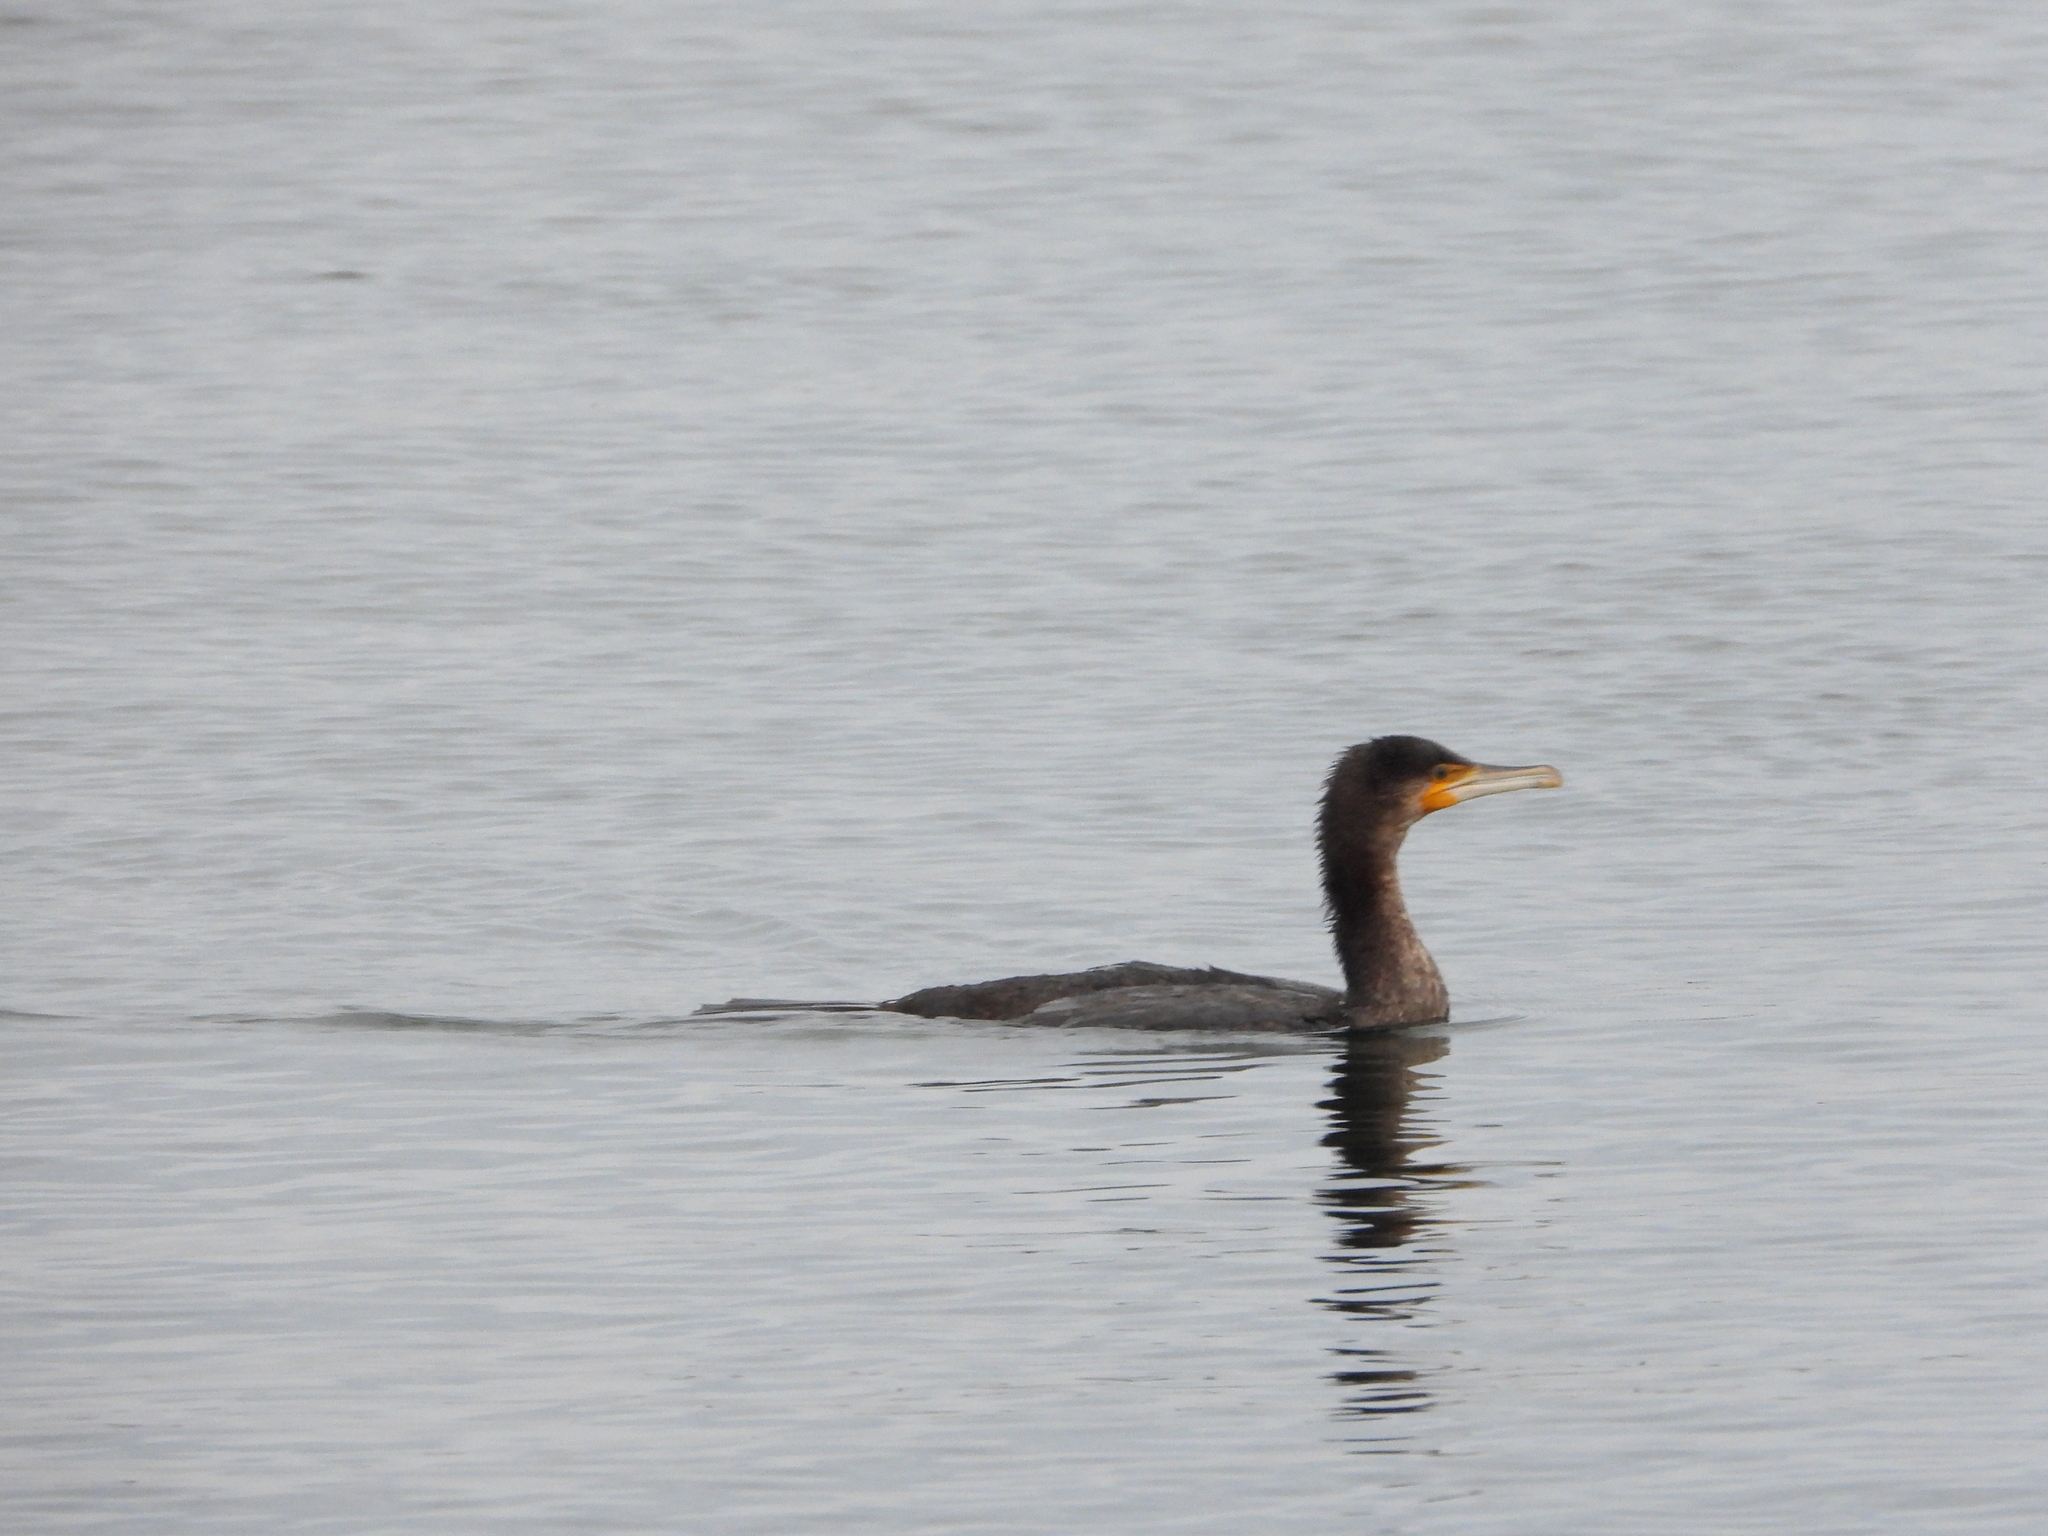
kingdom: Animalia
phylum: Chordata
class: Aves
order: Suliformes
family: Phalacrocoracidae
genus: Phalacrocorax
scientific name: Phalacrocorax carbo
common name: Great cormorant
